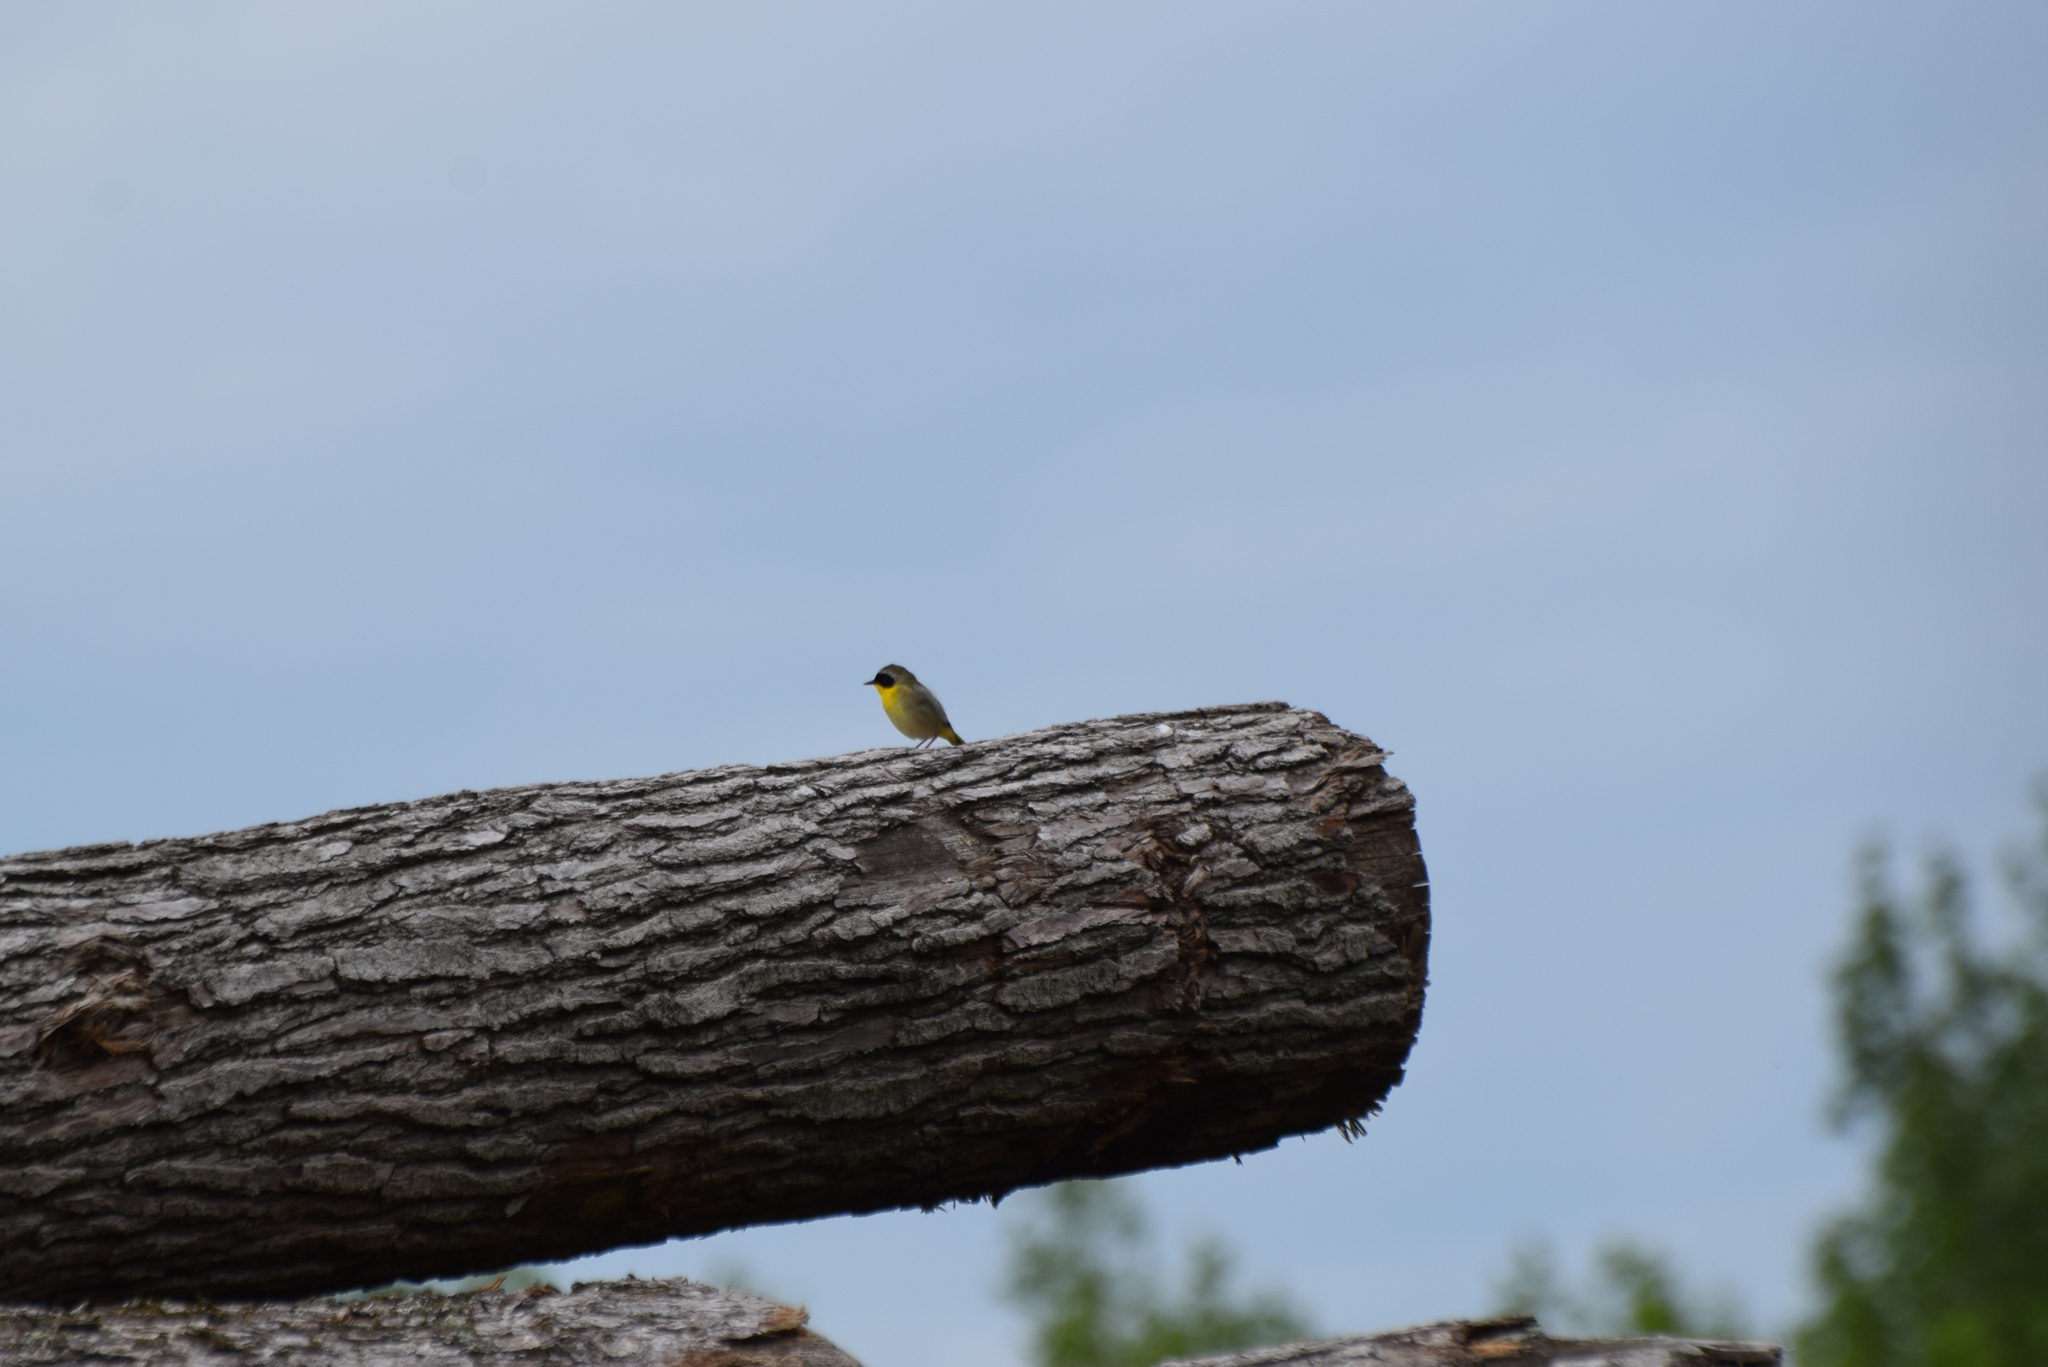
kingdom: Animalia
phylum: Chordata
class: Aves
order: Passeriformes
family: Parulidae
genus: Geothlypis
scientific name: Geothlypis trichas
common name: Common yellowthroat
